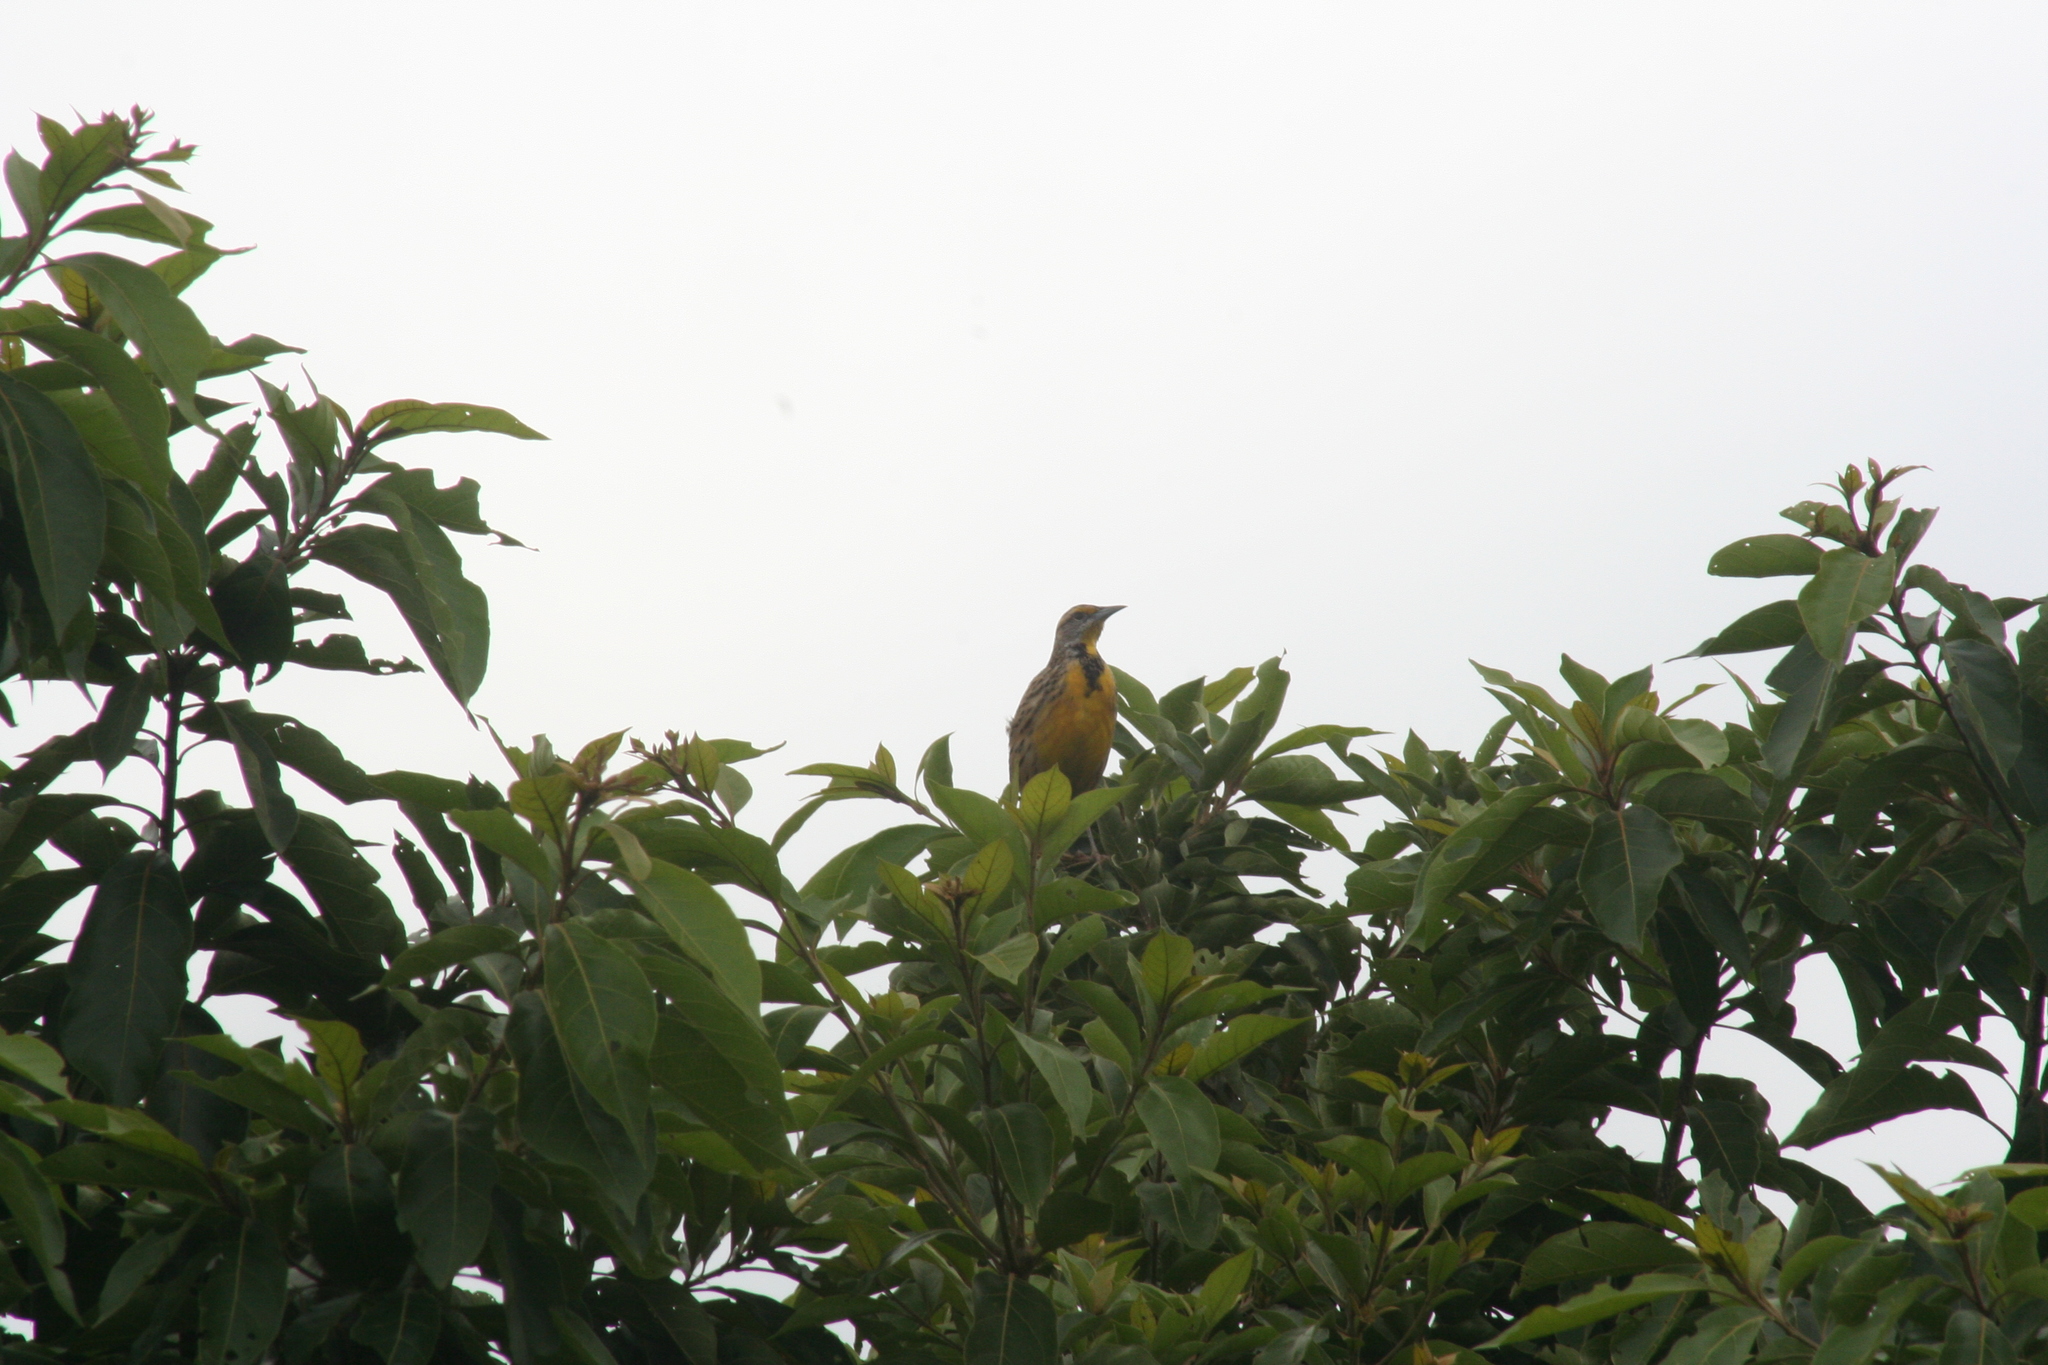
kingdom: Animalia
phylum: Chordata
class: Aves
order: Passeriformes
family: Icteridae
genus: Sturnella
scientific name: Sturnella magna
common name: Eastern meadowlark
